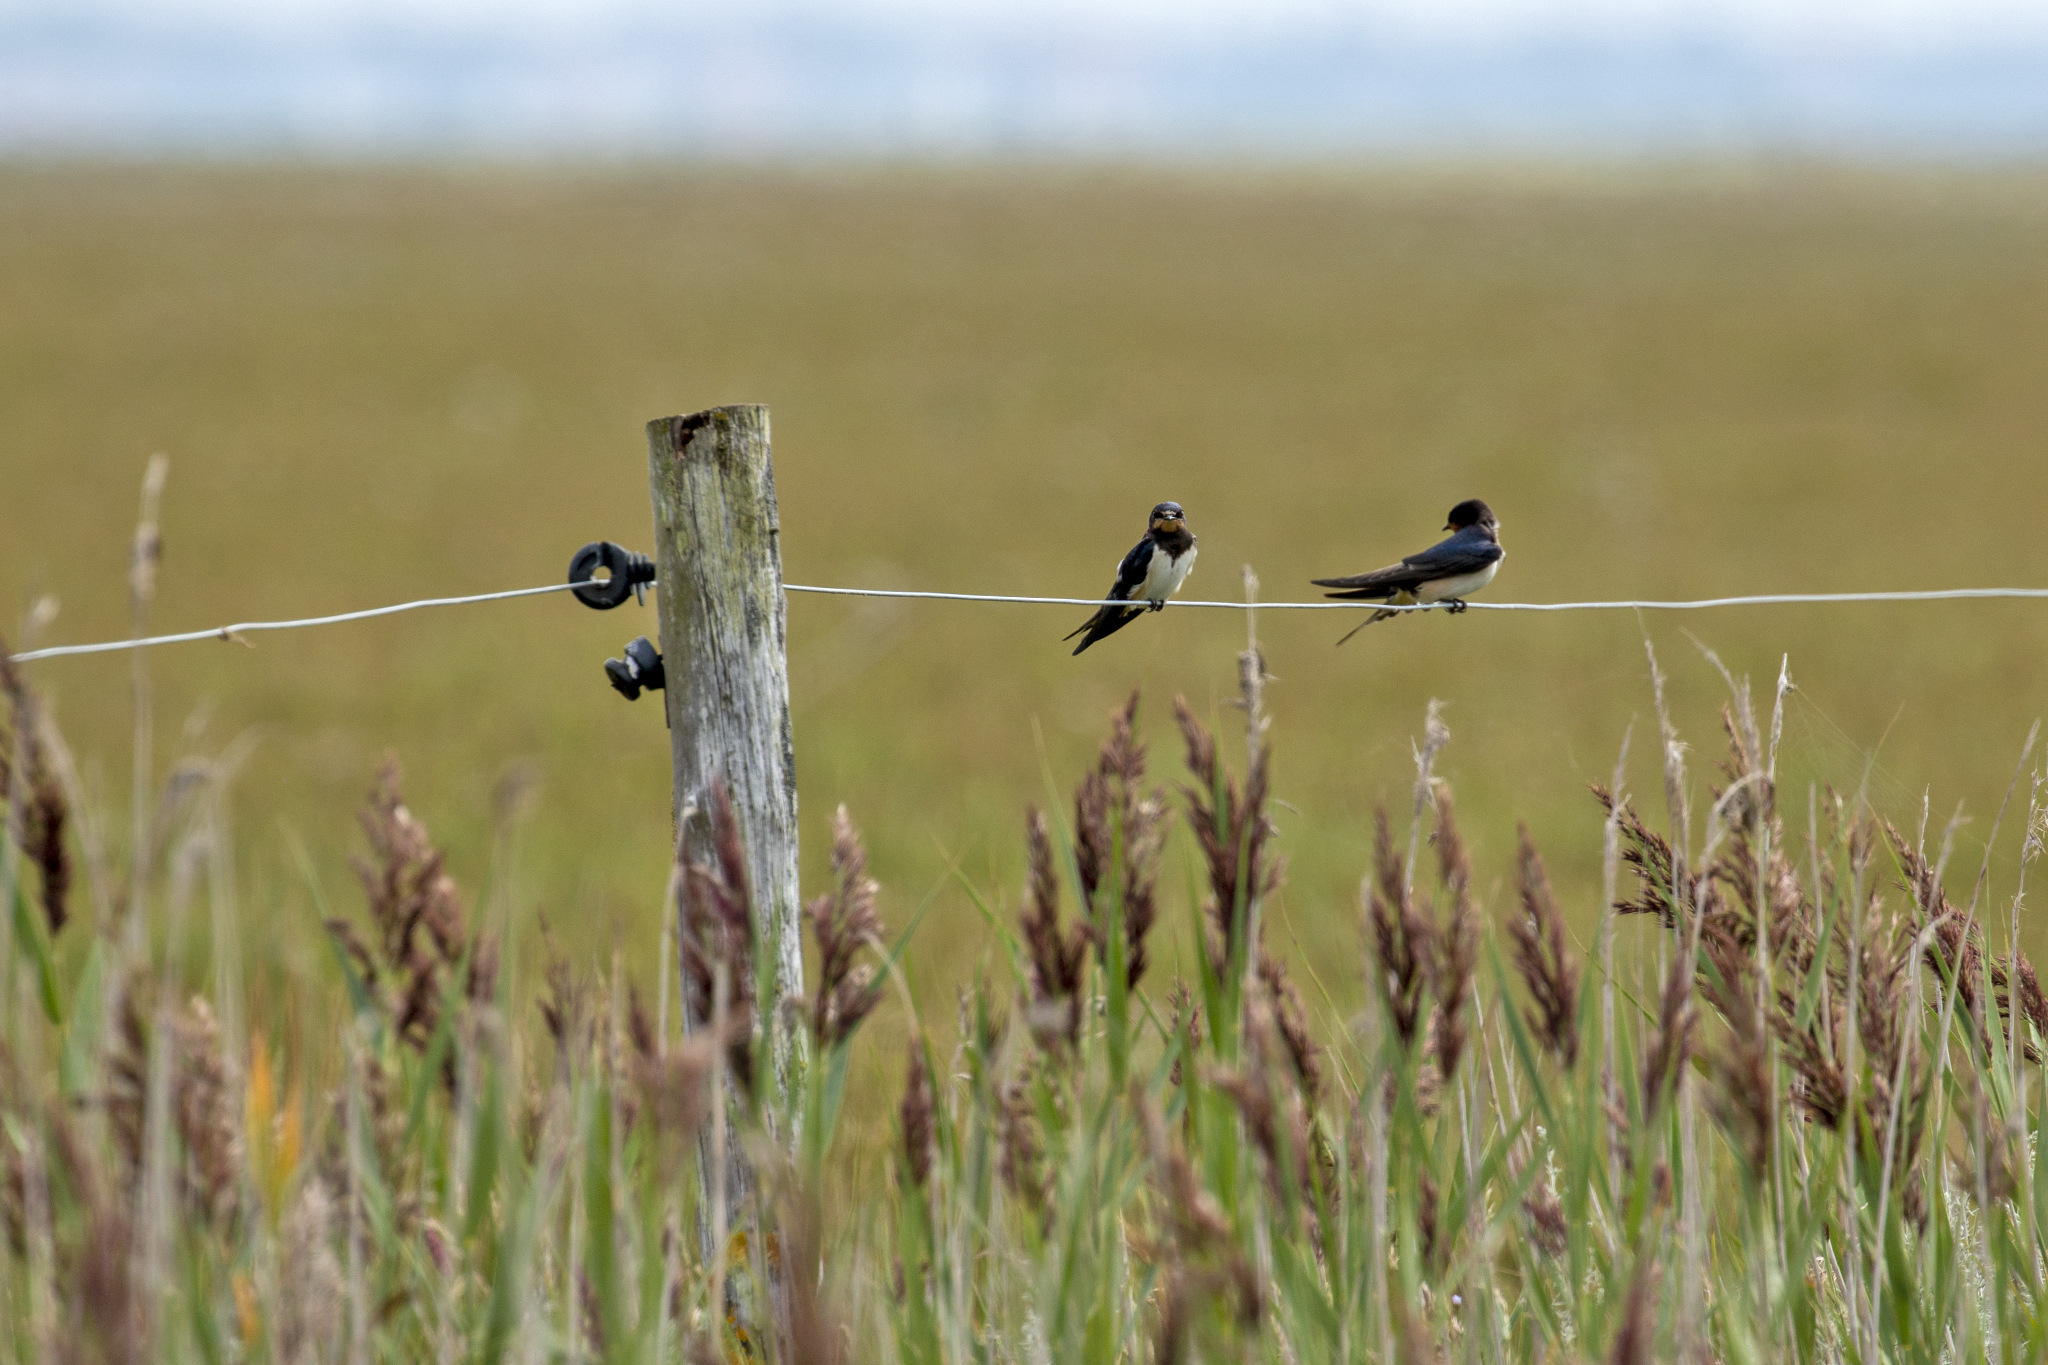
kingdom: Animalia
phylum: Chordata
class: Aves
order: Passeriformes
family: Hirundinidae
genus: Hirundo
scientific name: Hirundo rustica
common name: Barn swallow
